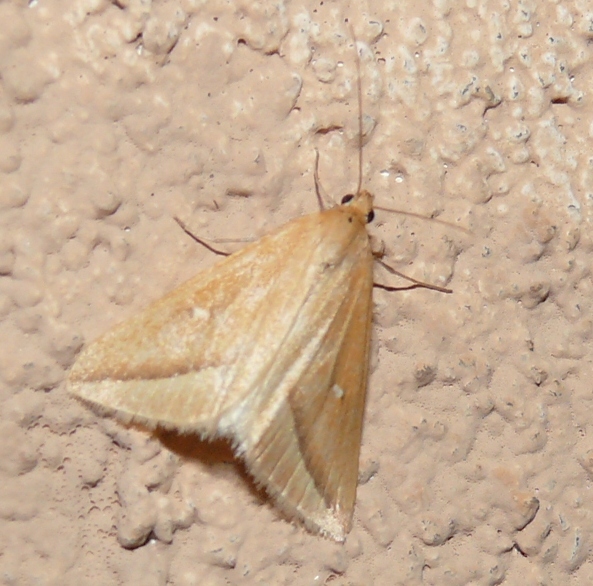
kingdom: Animalia
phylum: Arthropoda
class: Insecta
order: Lepidoptera
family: Geometridae
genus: Rhodometra
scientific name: Rhodometra participata
